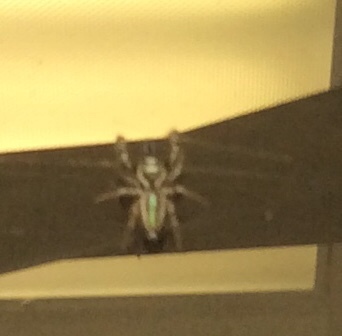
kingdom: Animalia
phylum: Arthropoda
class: Arachnida
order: Araneae
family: Salticidae
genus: Bagheera
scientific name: Bagheera prosper
